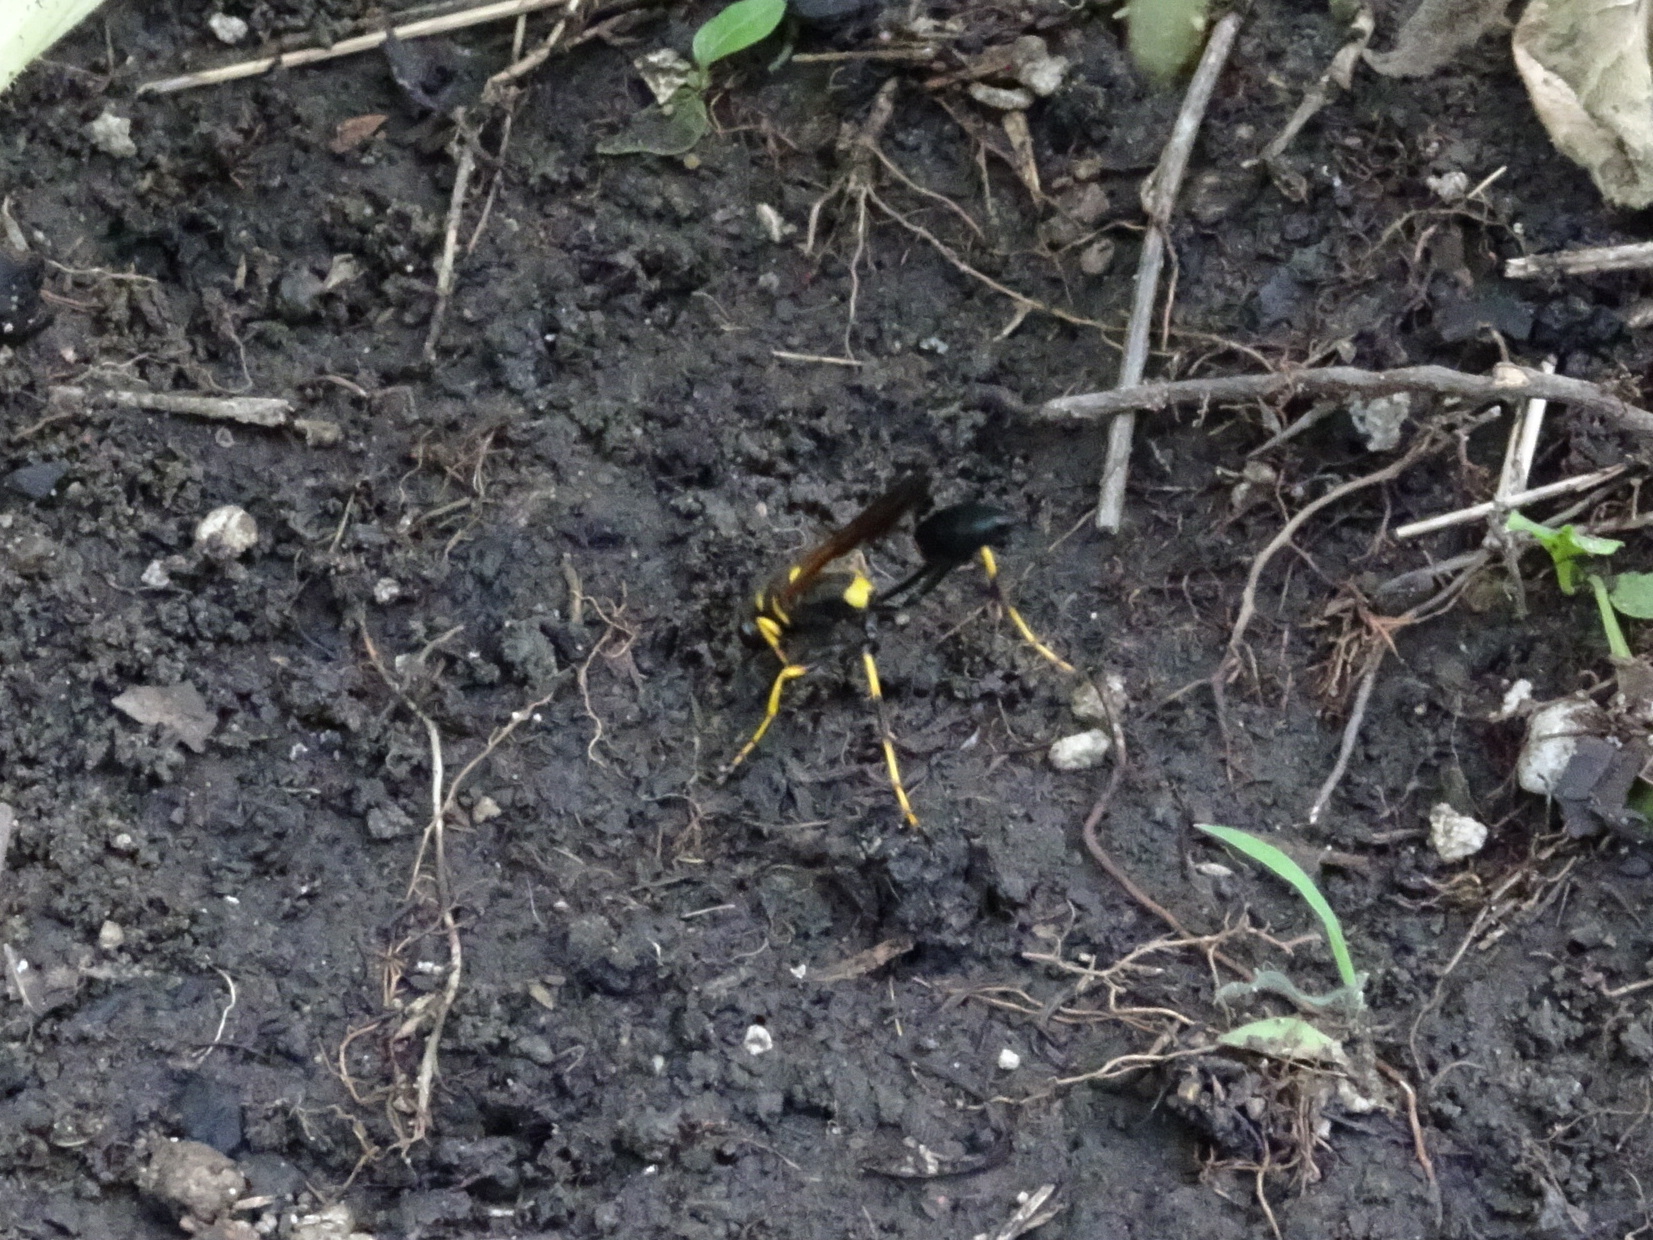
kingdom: Animalia
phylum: Arthropoda
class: Insecta
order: Hymenoptera
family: Sphecidae
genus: Sceliphron
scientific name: Sceliphron caementarium
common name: Mud dauber
